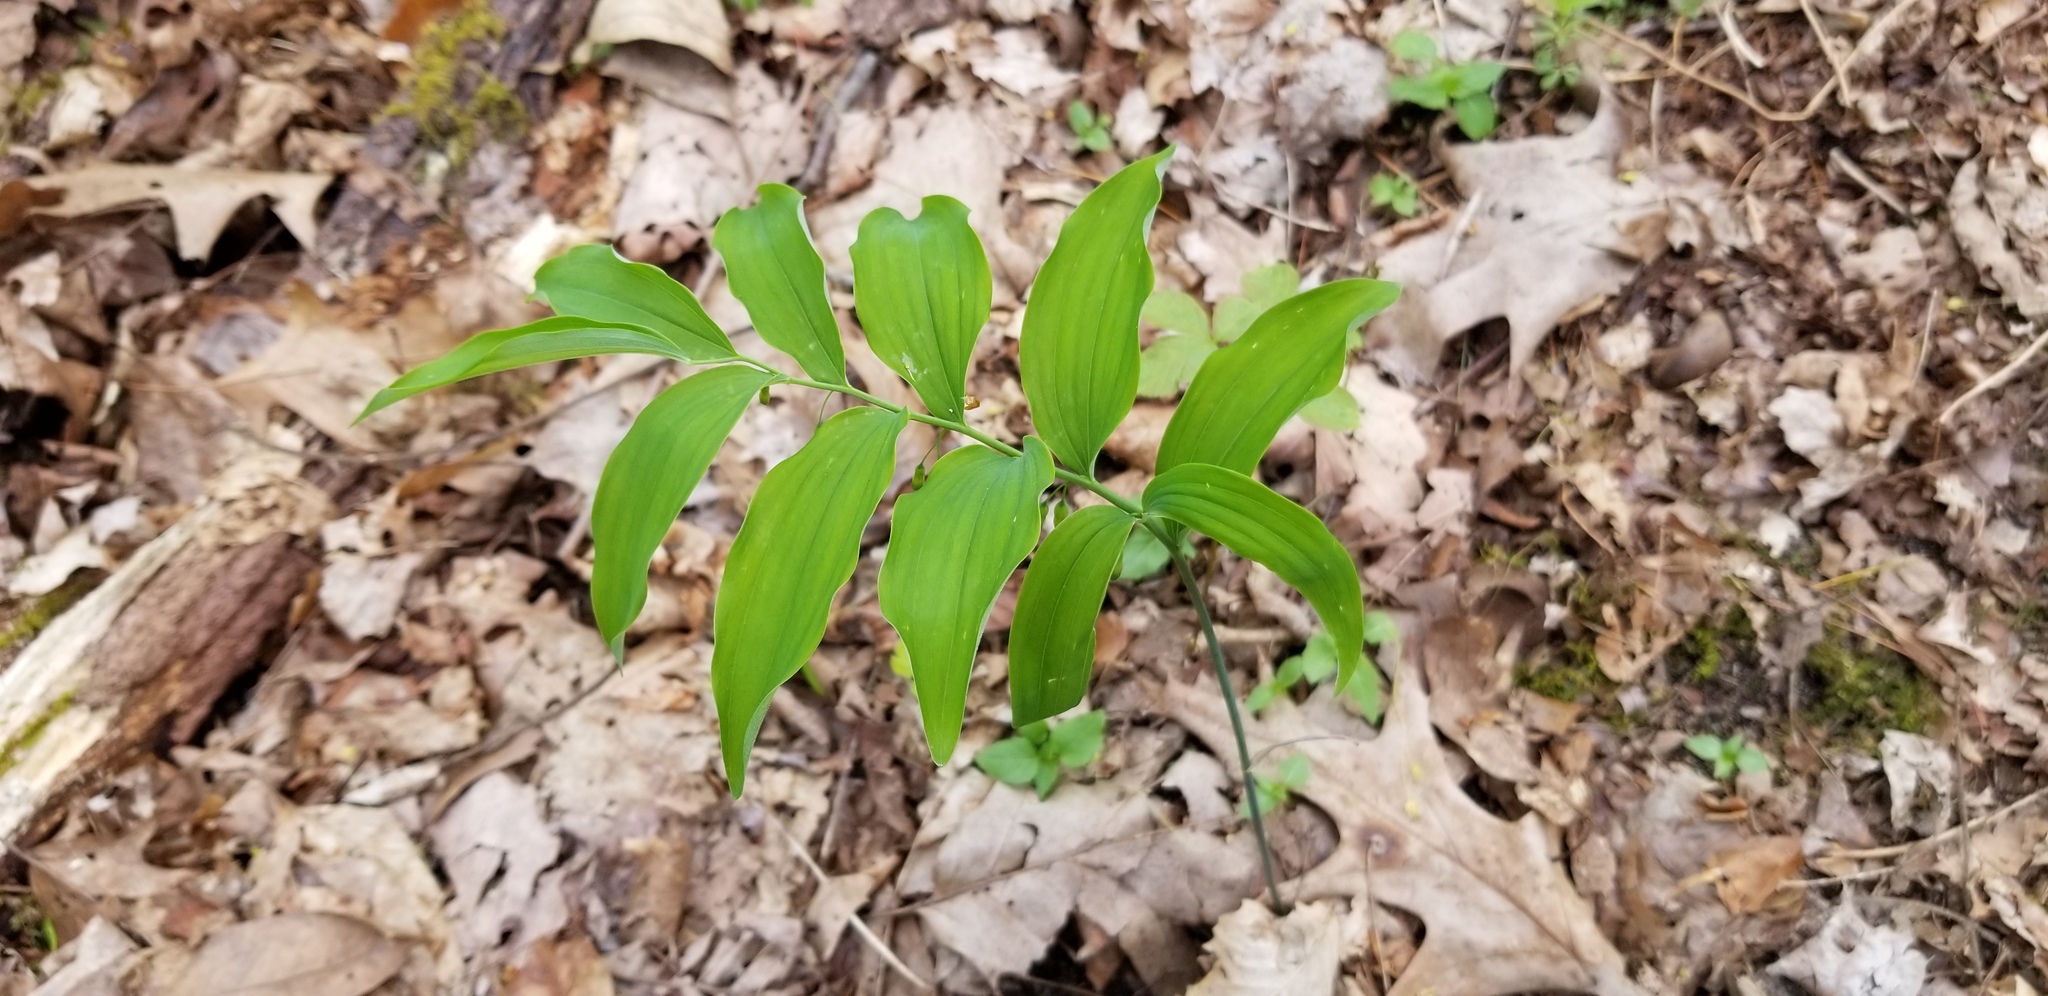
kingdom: Plantae
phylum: Tracheophyta
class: Liliopsida
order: Asparagales
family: Asparagaceae
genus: Polygonatum
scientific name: Polygonatum pubescens
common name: Downy solomon's seal
